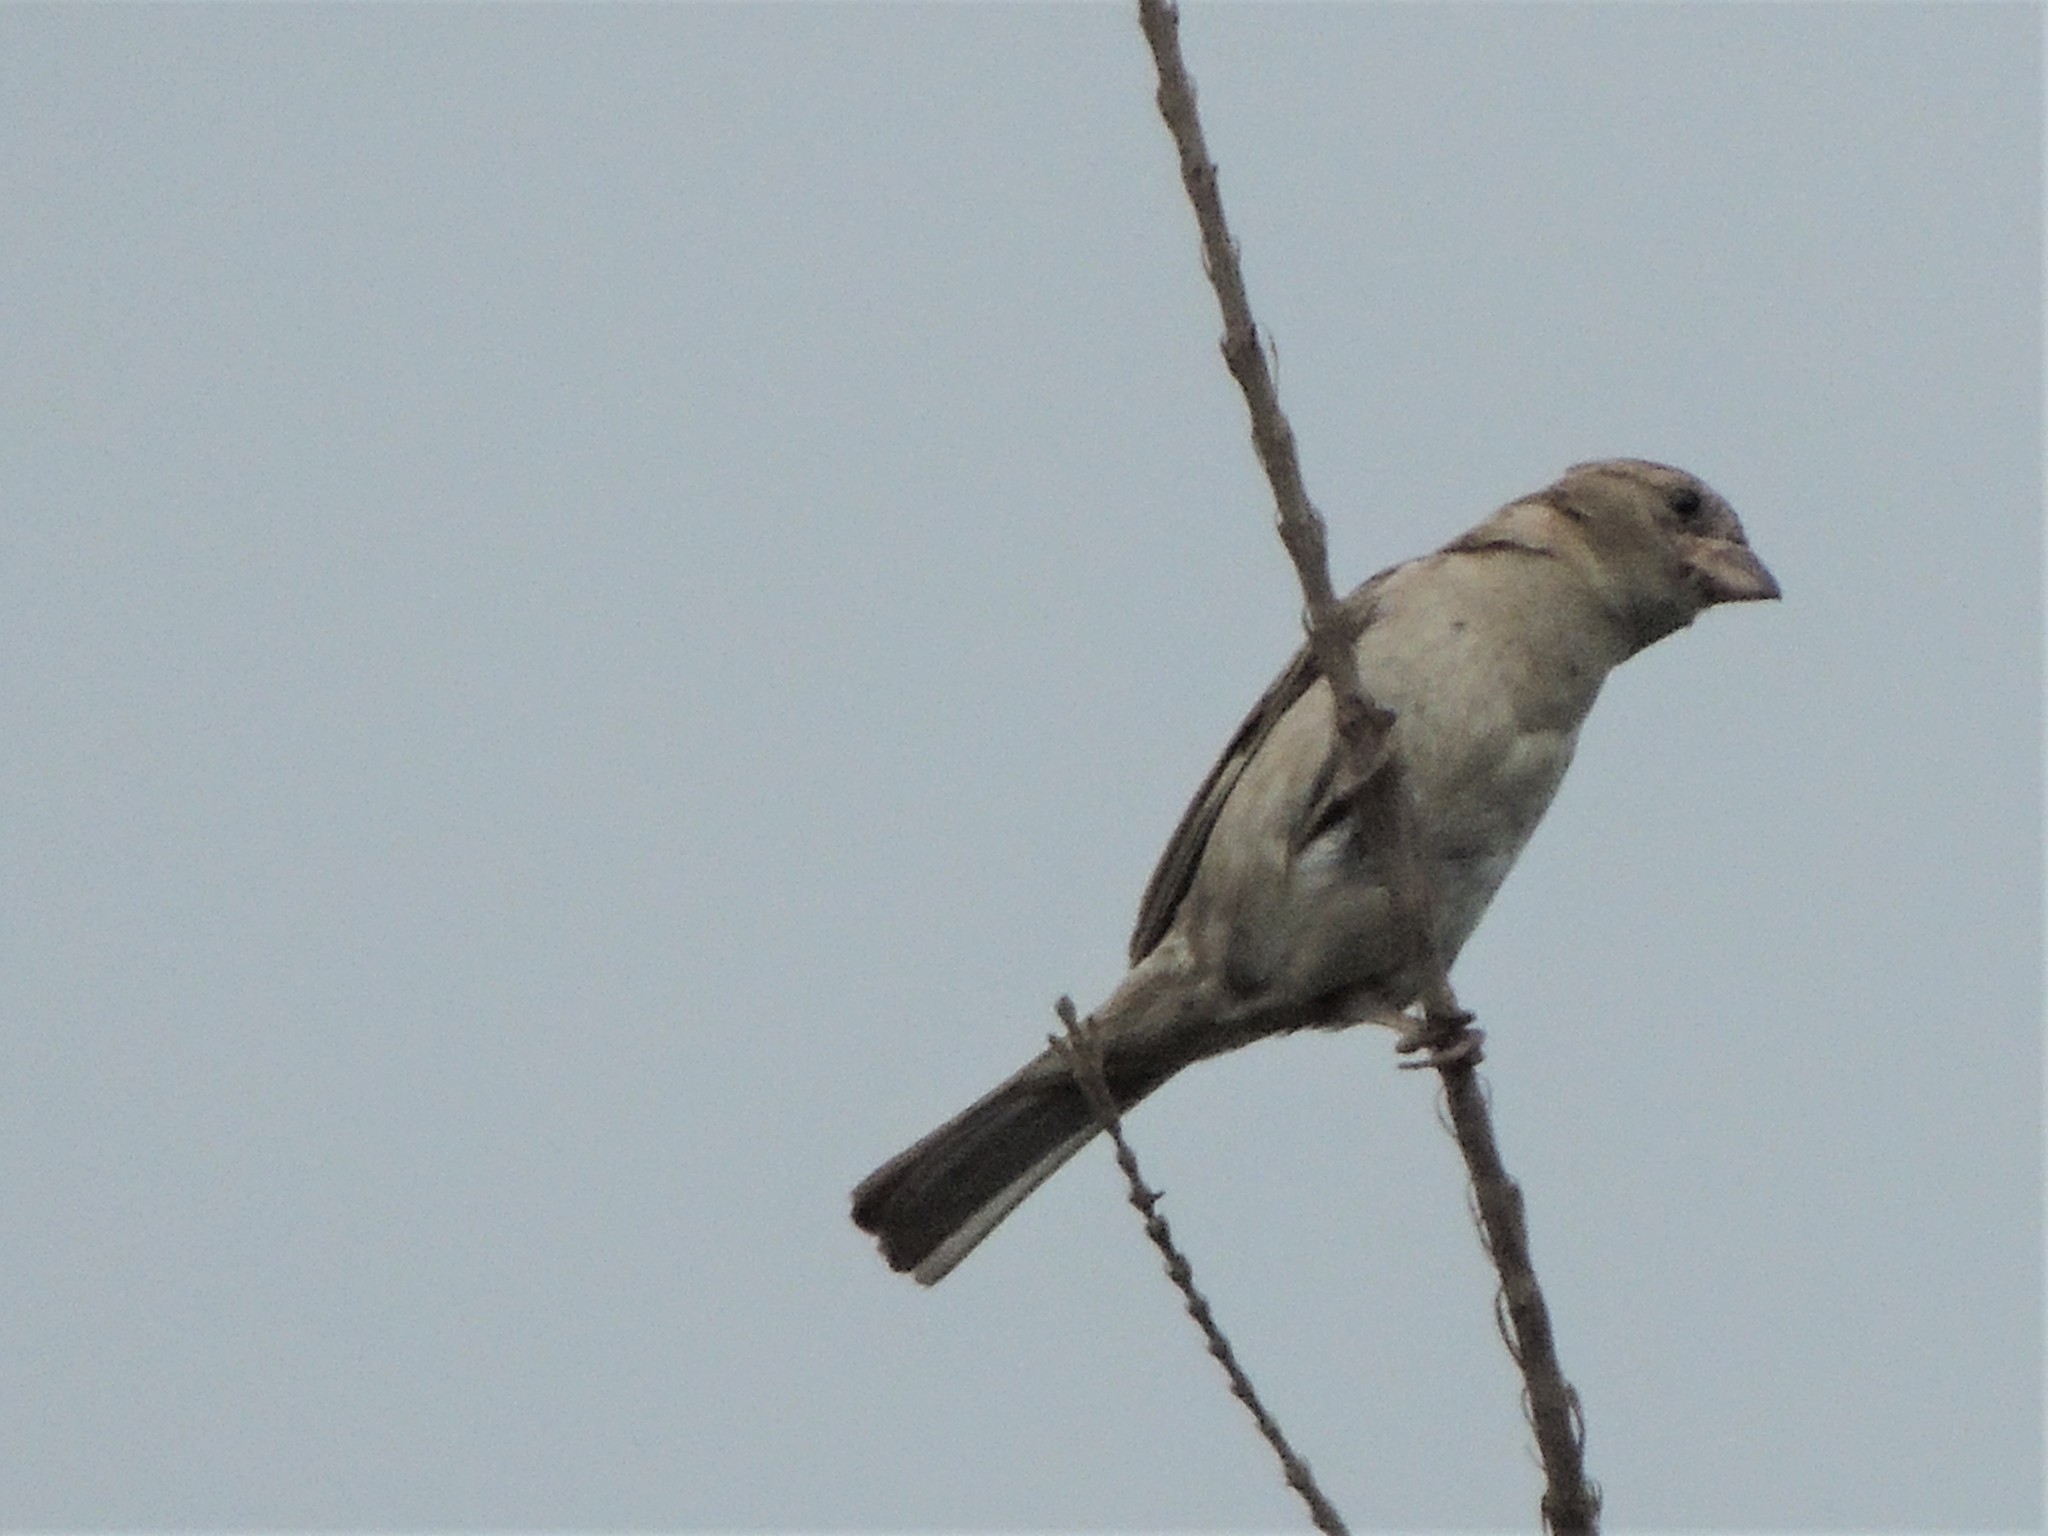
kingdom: Animalia
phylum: Chordata
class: Aves
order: Passeriformes
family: Passeridae
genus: Passer
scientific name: Passer domesticus
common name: House sparrow
